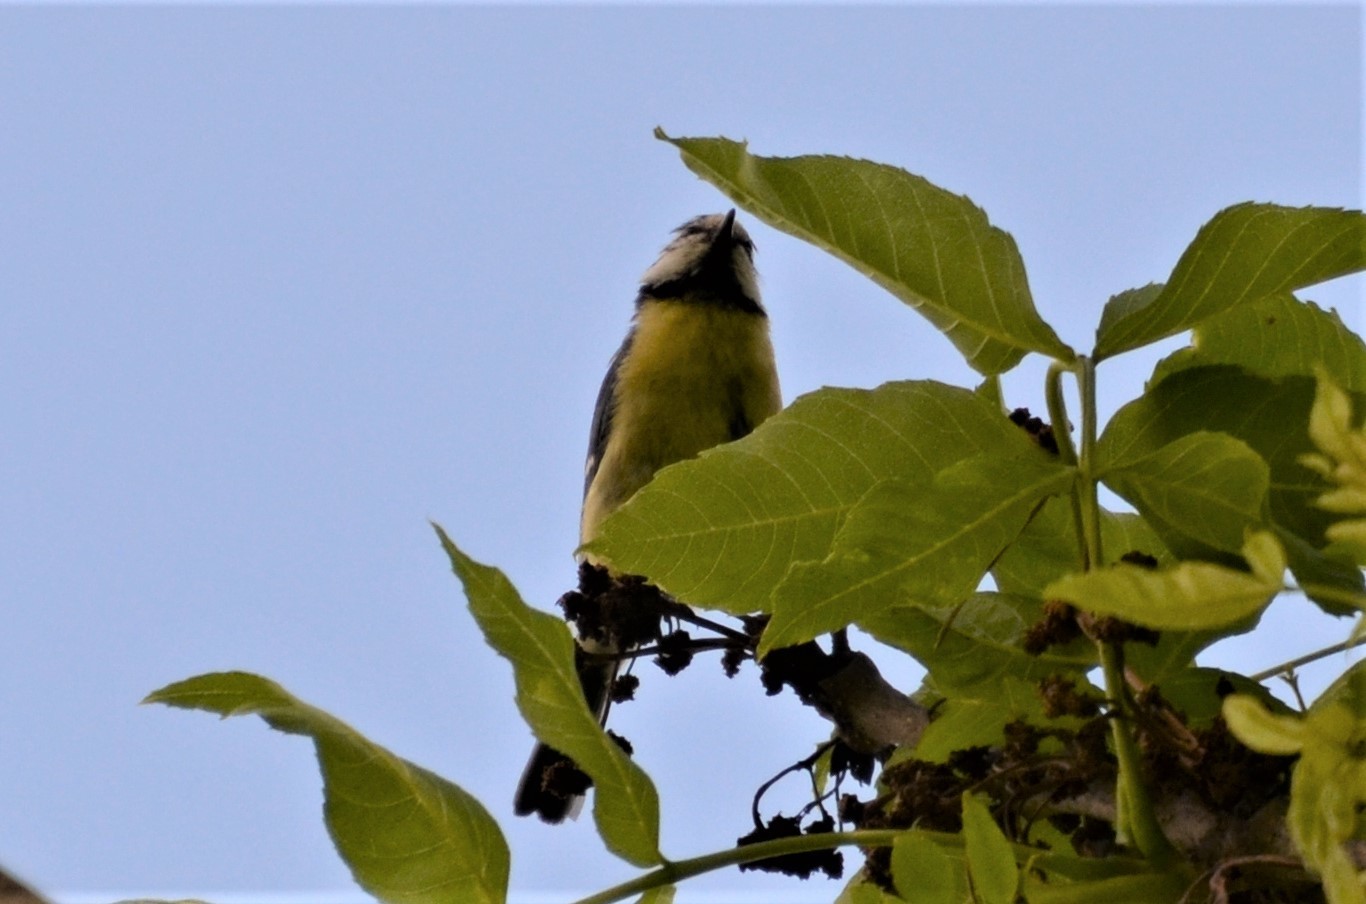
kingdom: Animalia
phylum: Chordata
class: Aves
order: Passeriformes
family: Paridae
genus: Cyanistes
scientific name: Cyanistes caeruleus
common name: Eurasian blue tit
